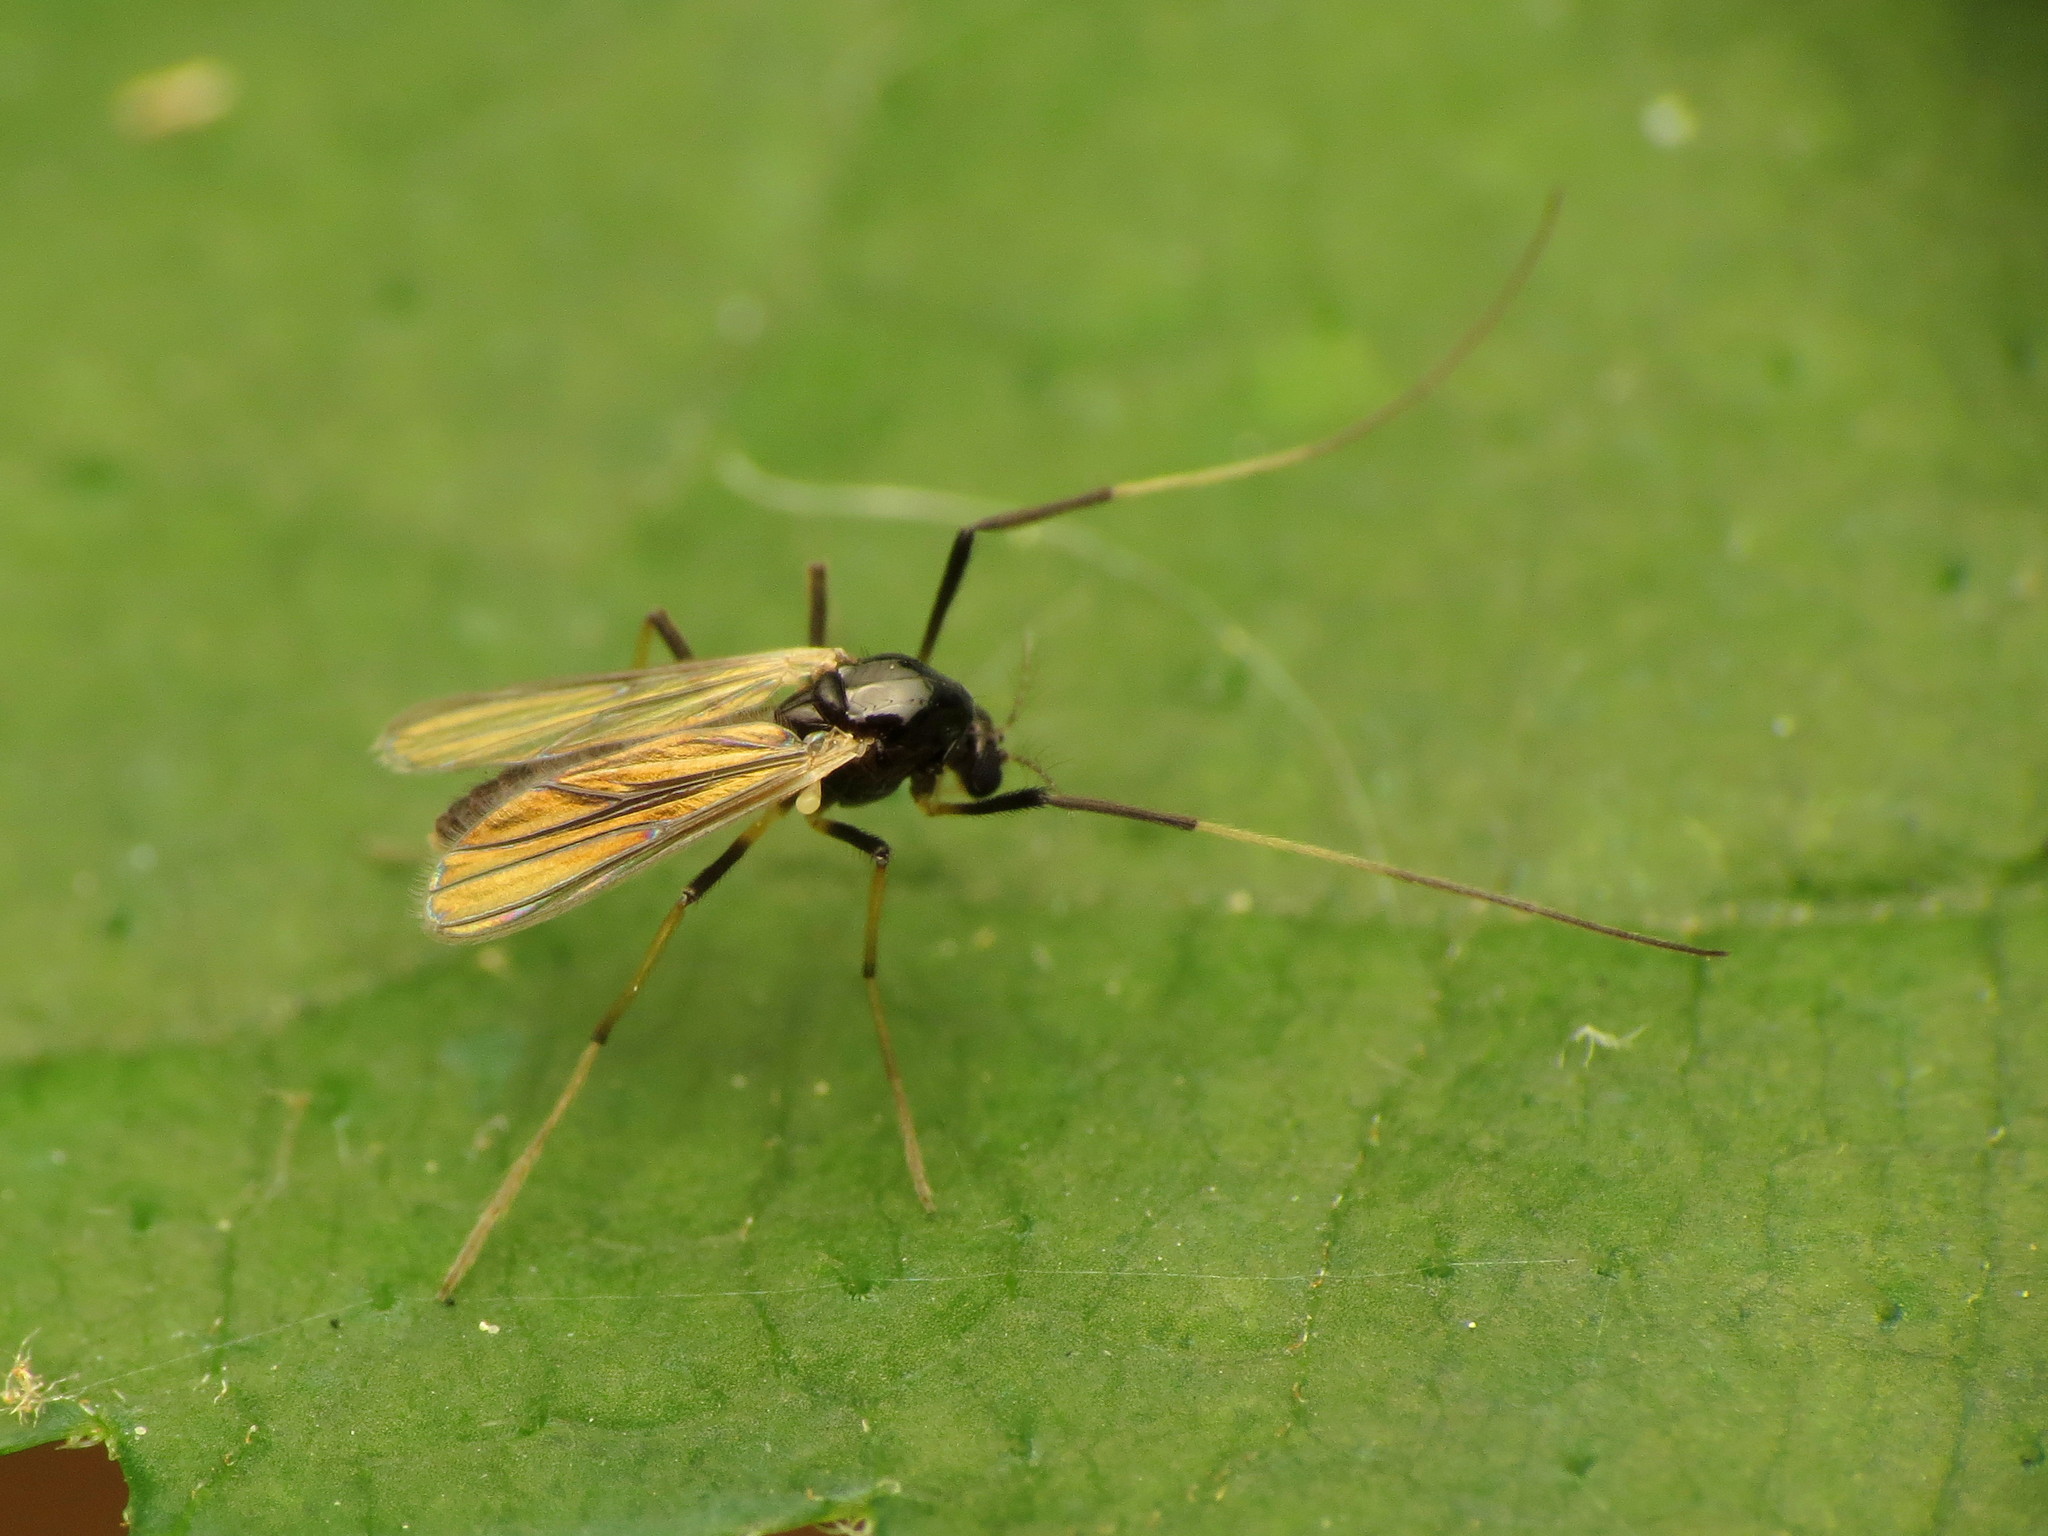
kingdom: Animalia
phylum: Arthropoda
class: Insecta
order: Diptera
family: Chironomidae
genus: Paratendipes
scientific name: Paratendipes albimanus
